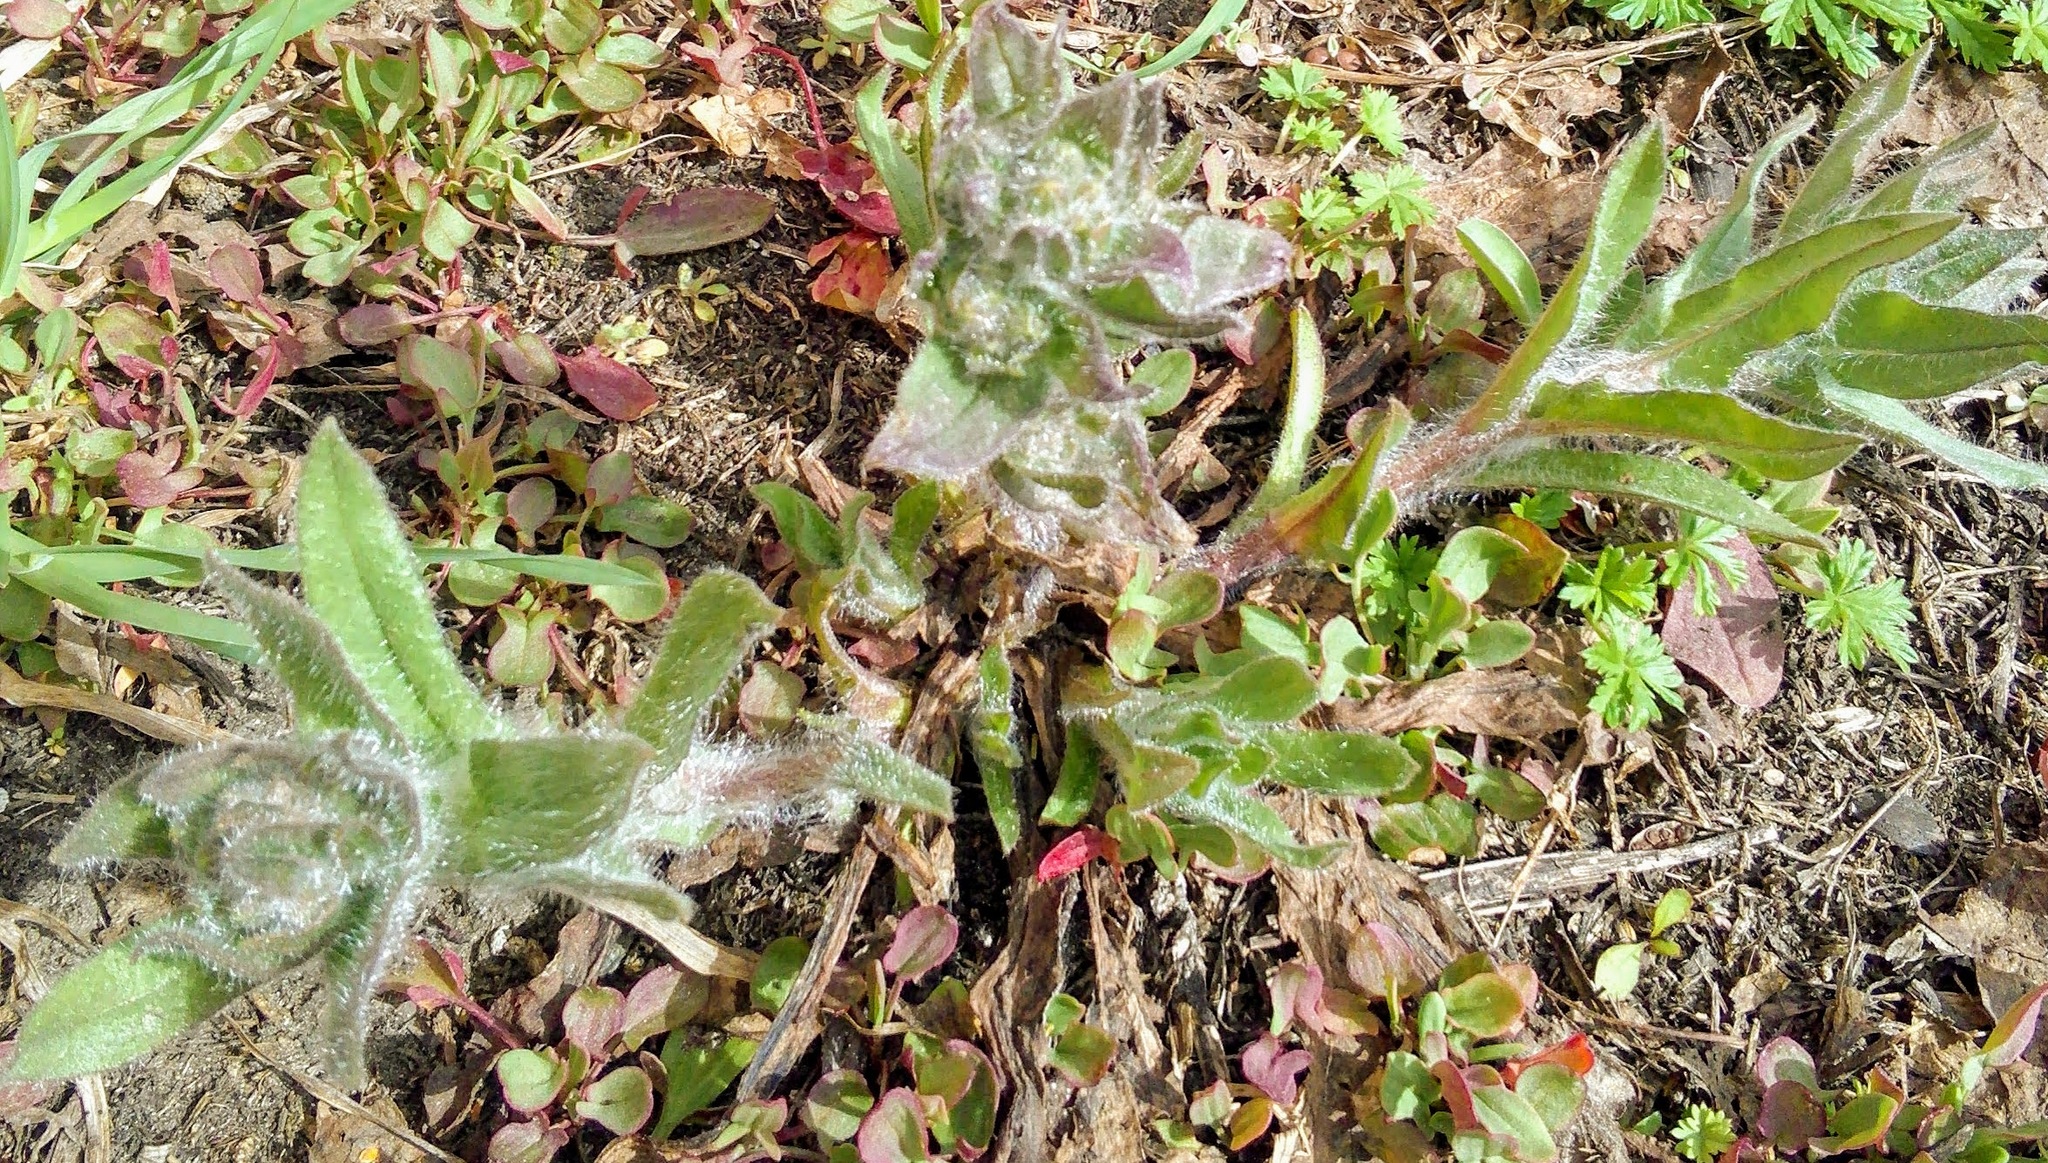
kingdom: Plantae
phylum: Tracheophyta
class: Magnoliopsida
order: Boraginales
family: Boraginaceae
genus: Nonea
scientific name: Nonea pulla
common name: Brown nonea
